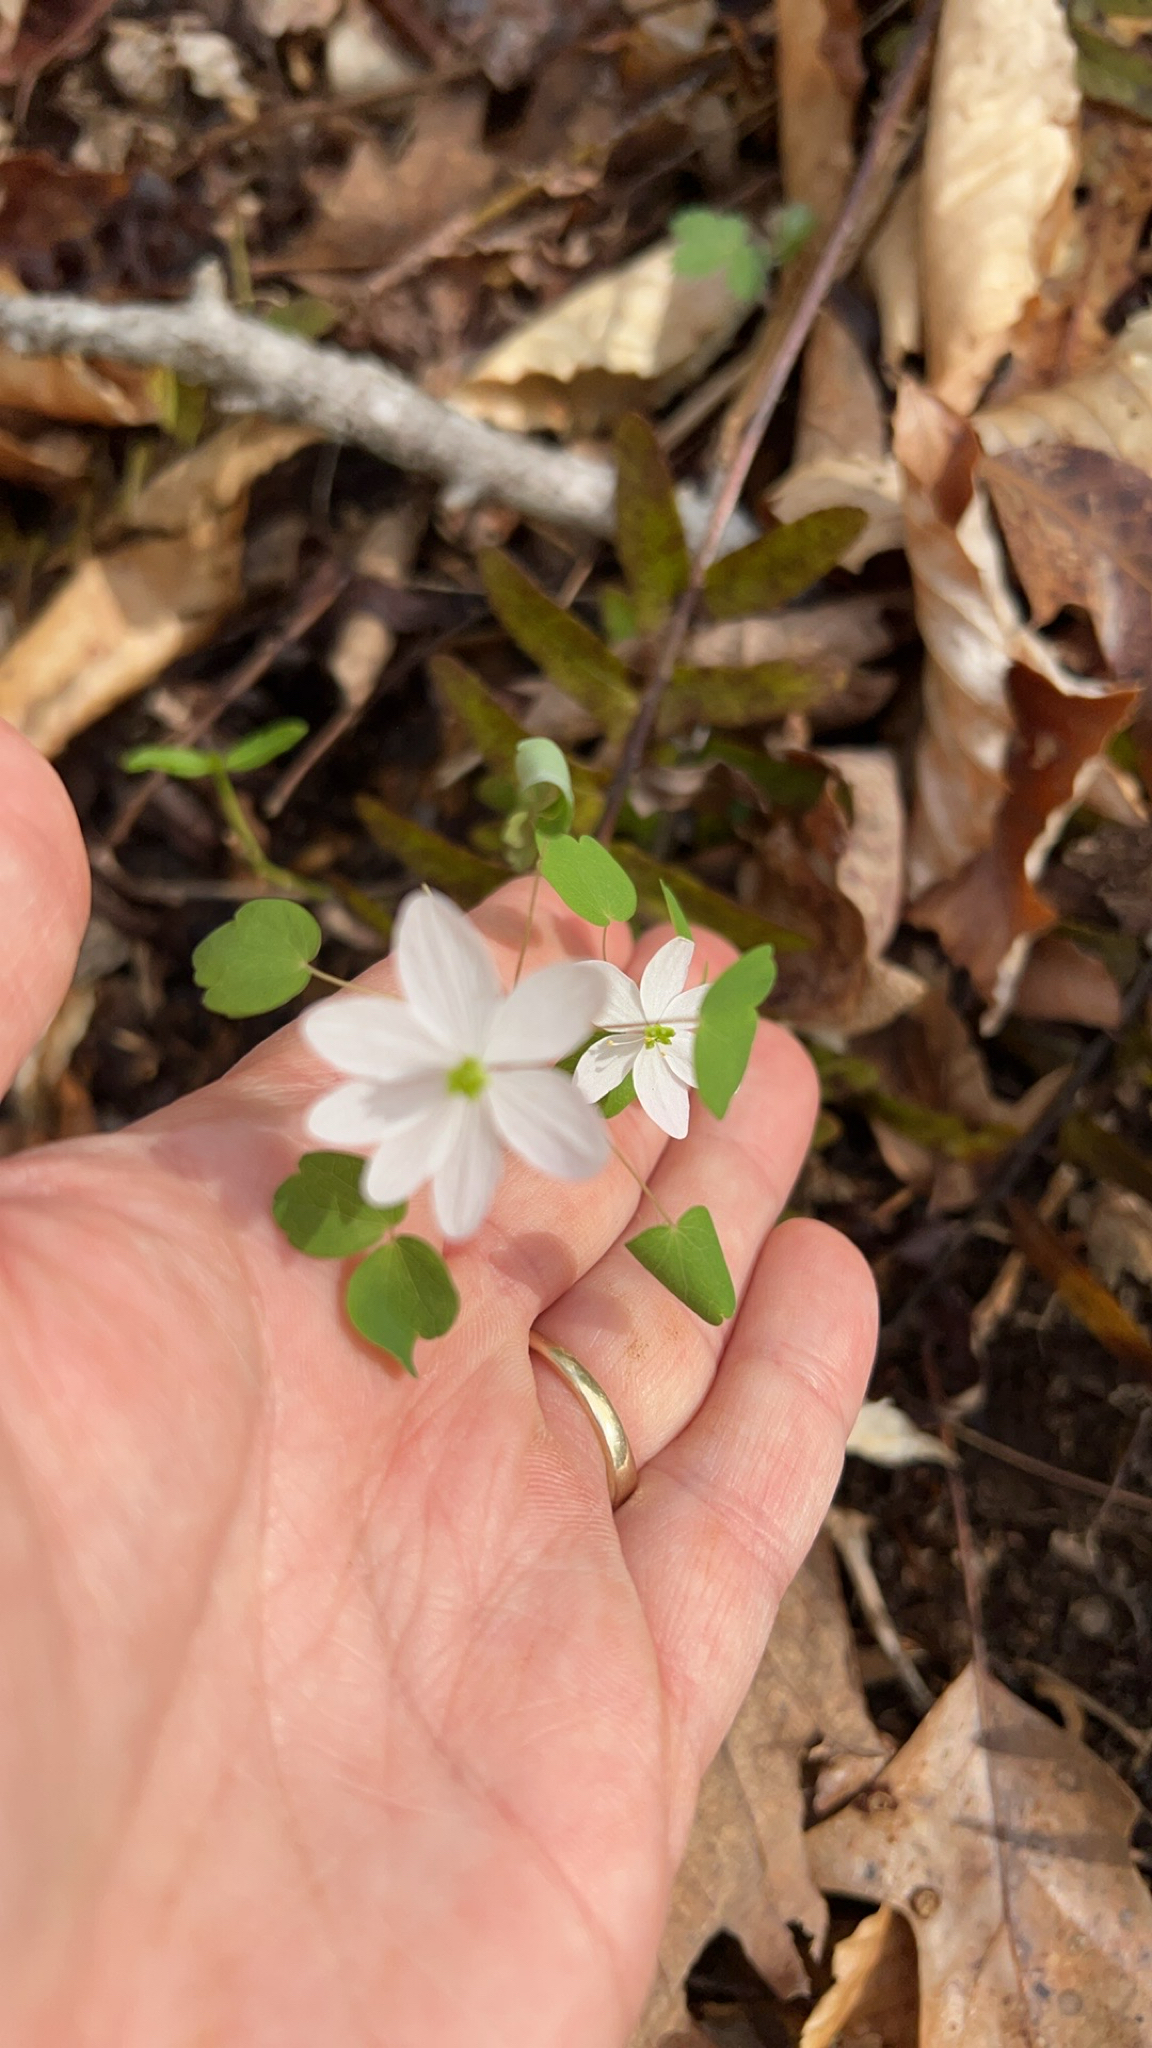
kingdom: Plantae
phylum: Tracheophyta
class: Magnoliopsida
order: Ranunculales
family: Ranunculaceae
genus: Thalictrum
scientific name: Thalictrum thalictroides
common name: Rue-anemone
